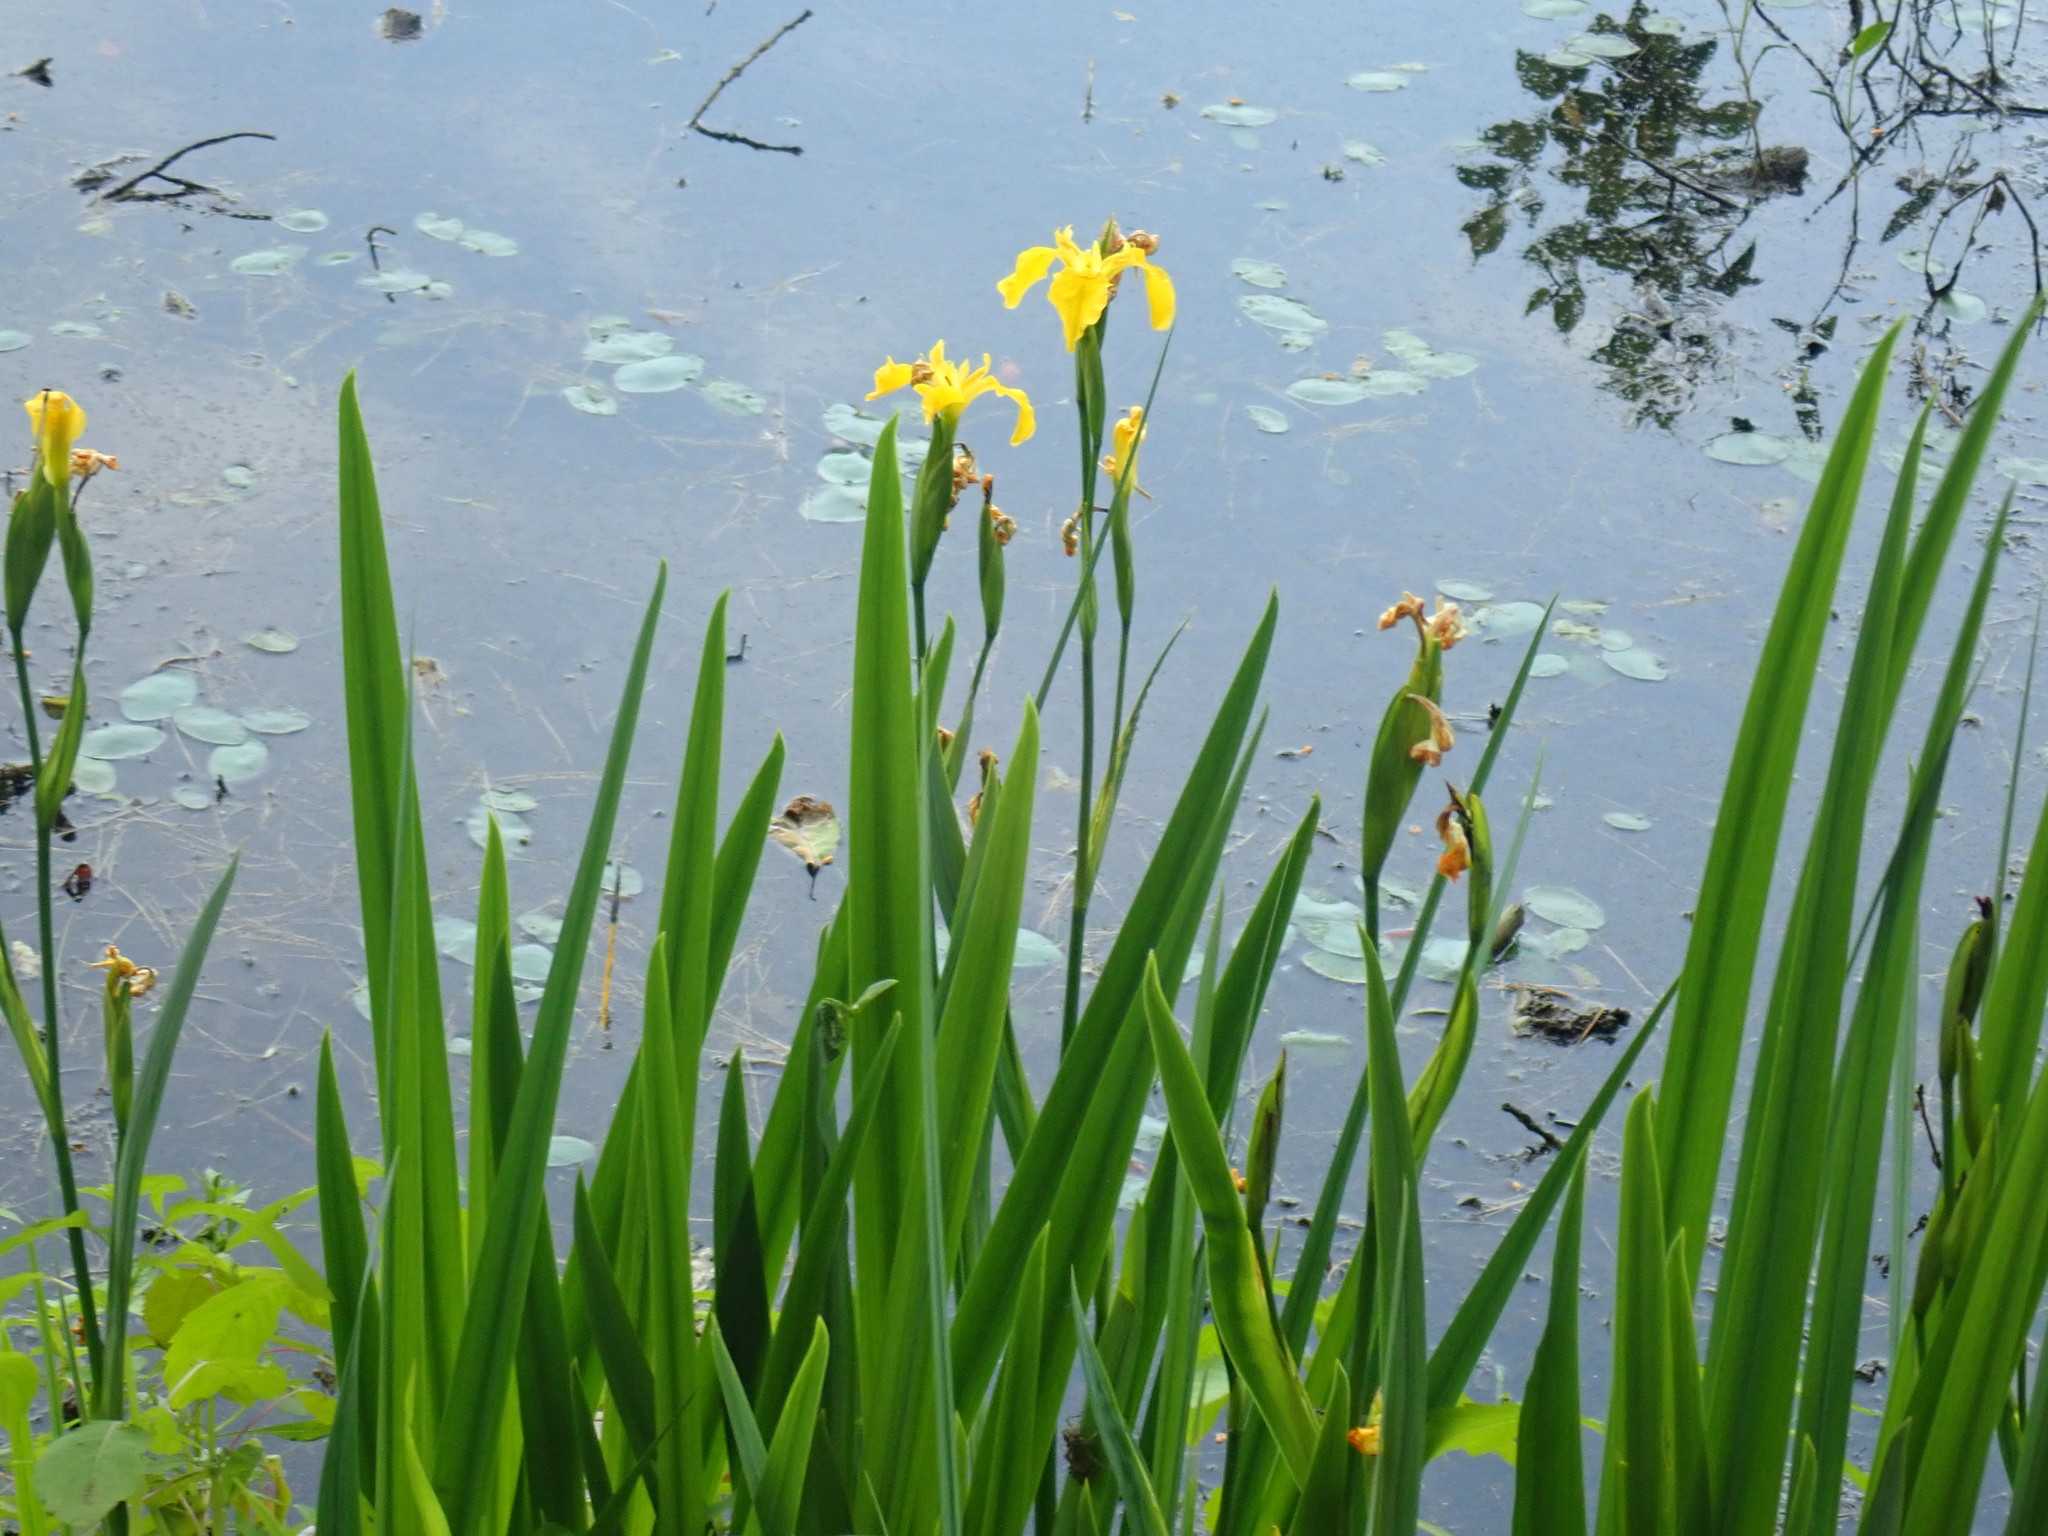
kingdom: Plantae
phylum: Tracheophyta
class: Liliopsida
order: Asparagales
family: Iridaceae
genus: Iris
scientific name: Iris pseudacorus
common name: Yellow flag
